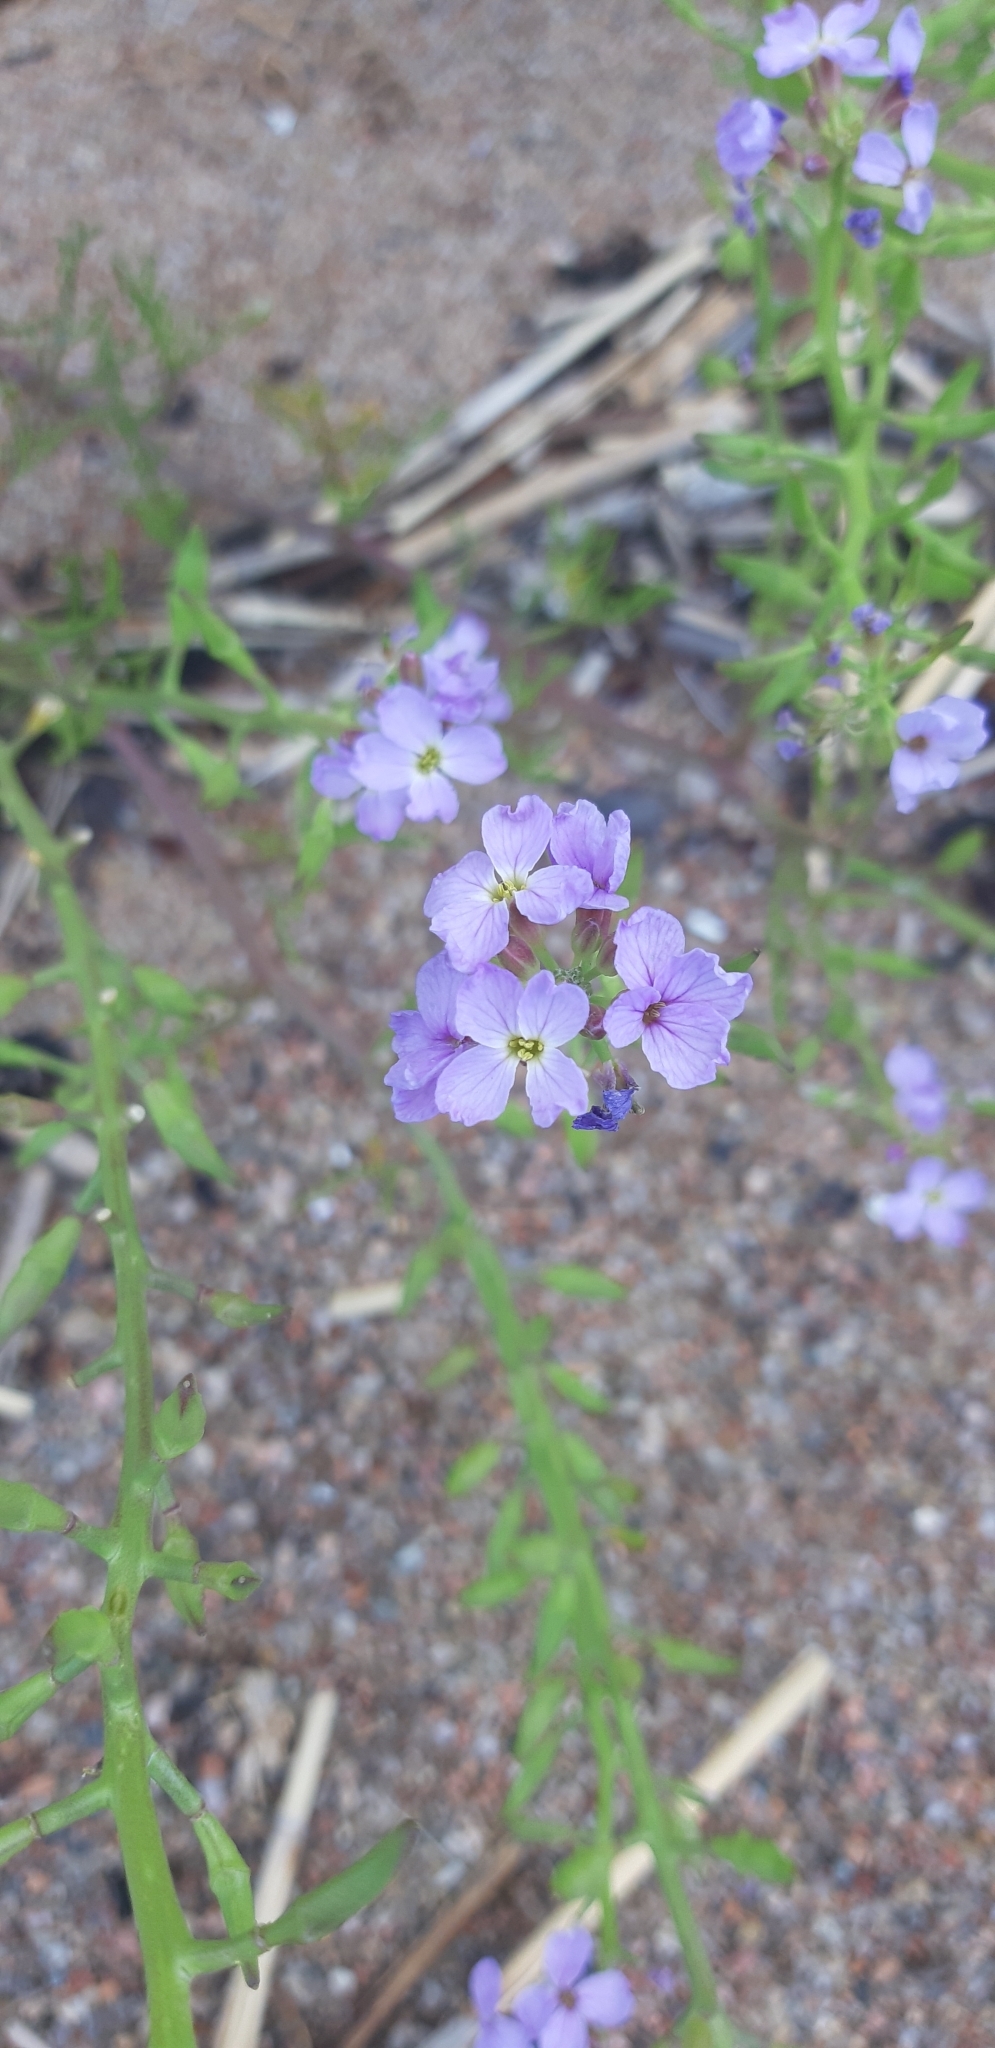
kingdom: Plantae
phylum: Tracheophyta
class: Magnoliopsida
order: Brassicales
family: Brassicaceae
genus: Cakile
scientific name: Cakile maritima
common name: Sea rocket
